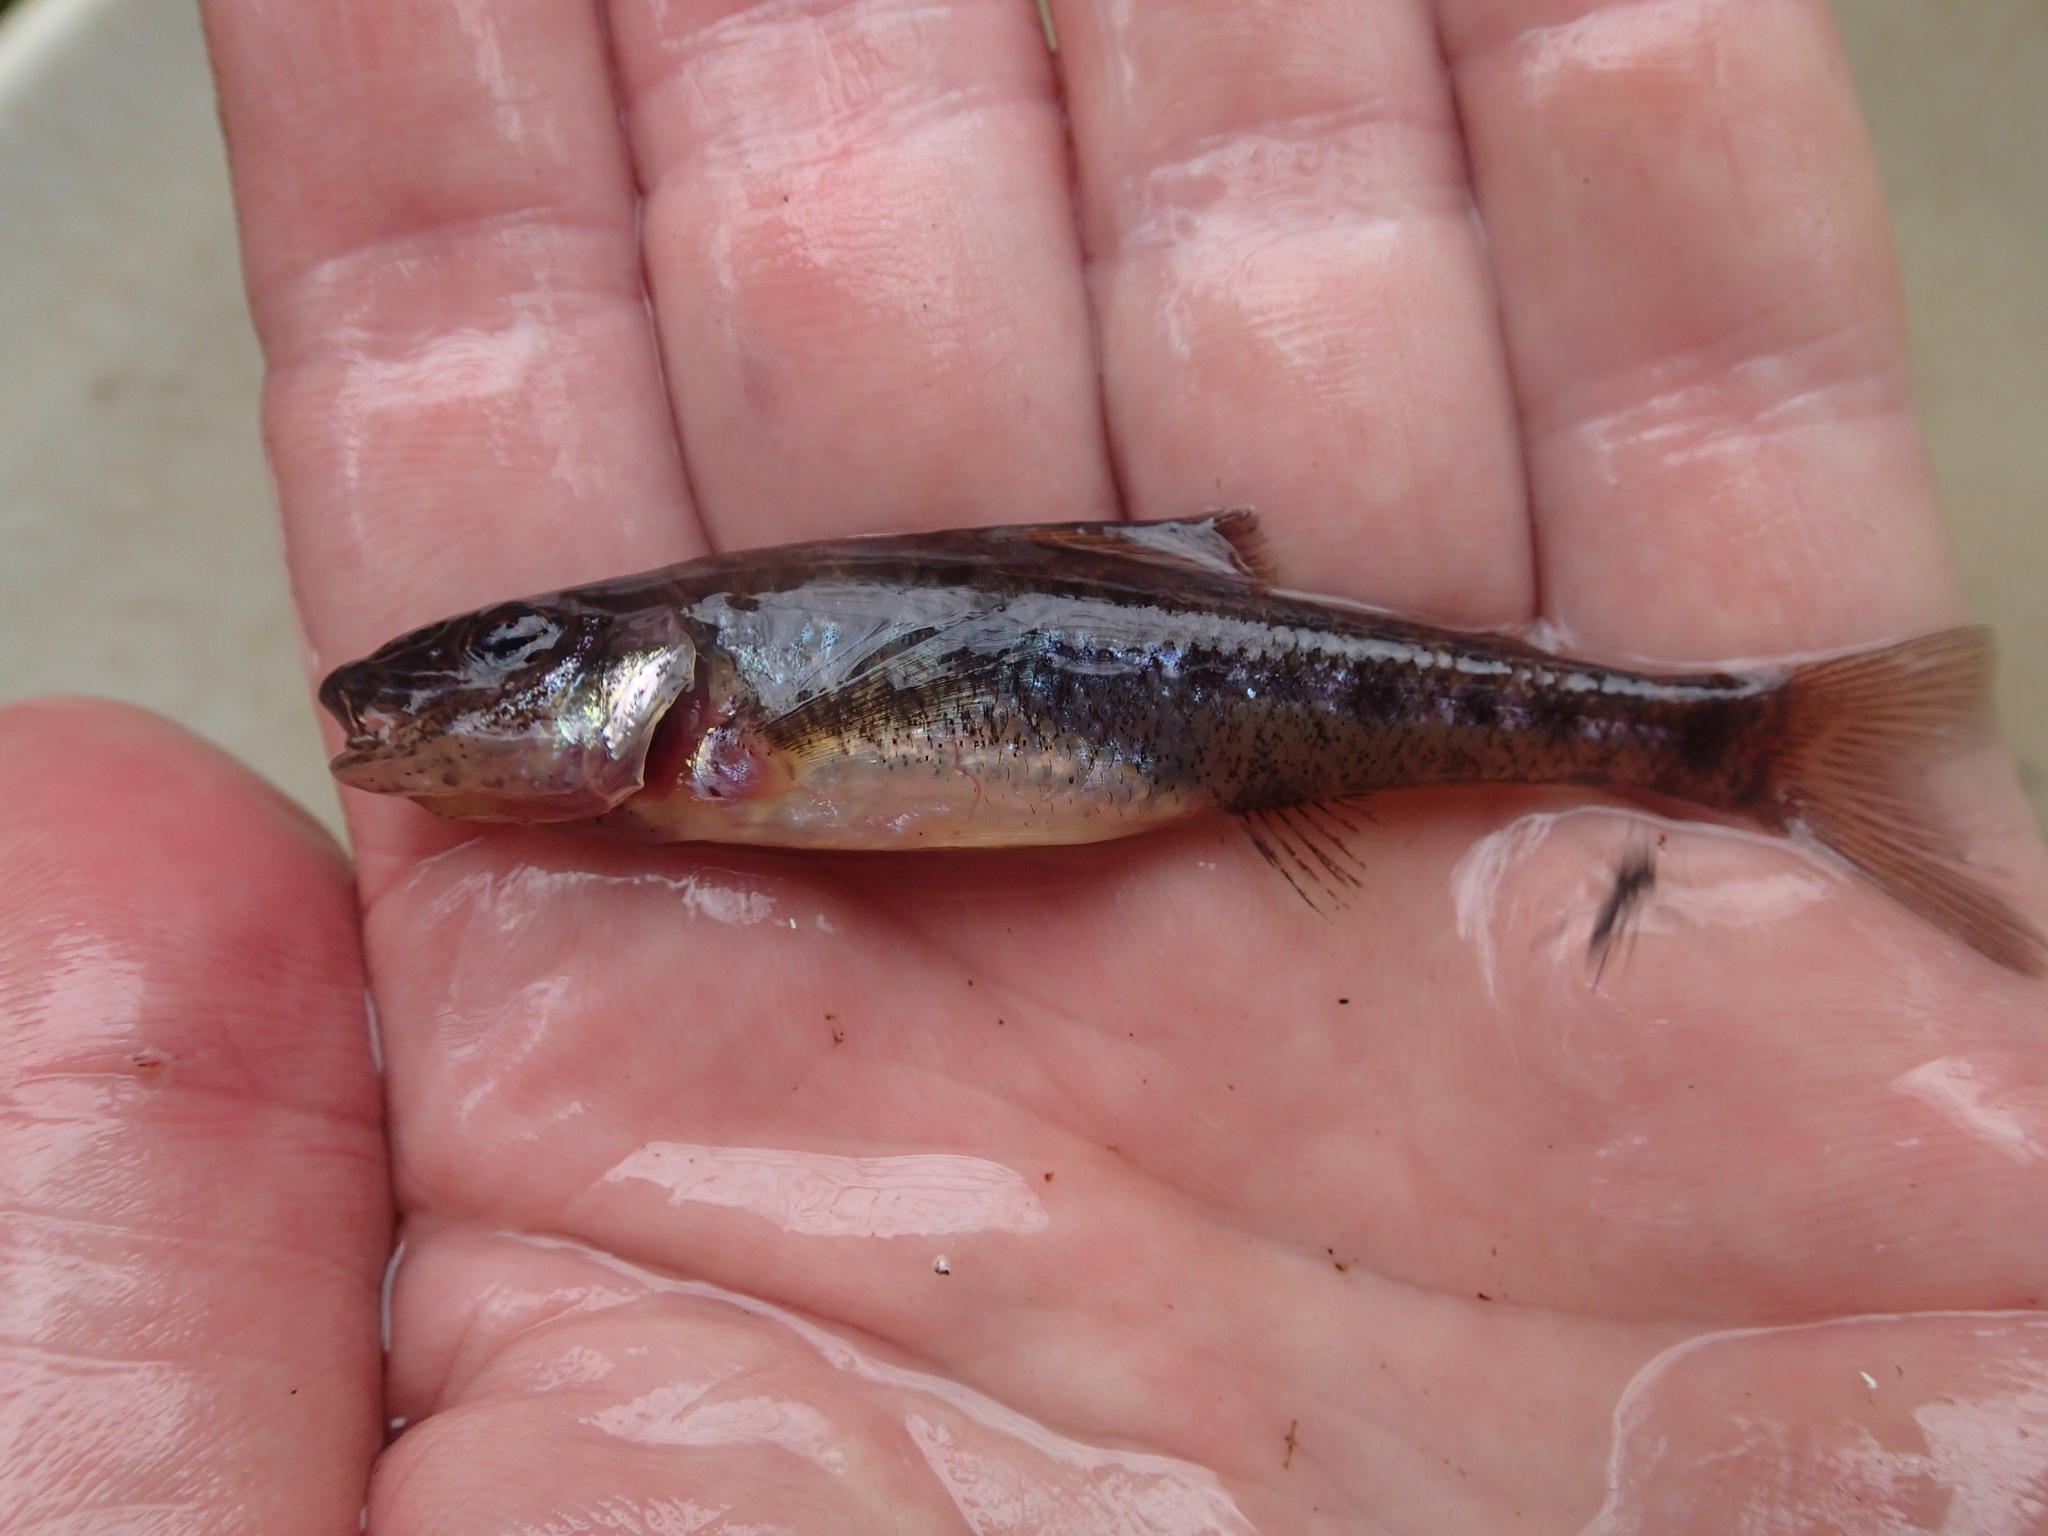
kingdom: Animalia
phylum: Chordata
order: Percopsiformes
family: Percopsidae
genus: Percopsis
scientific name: Percopsis omiscomaycus
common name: Trout-perch
